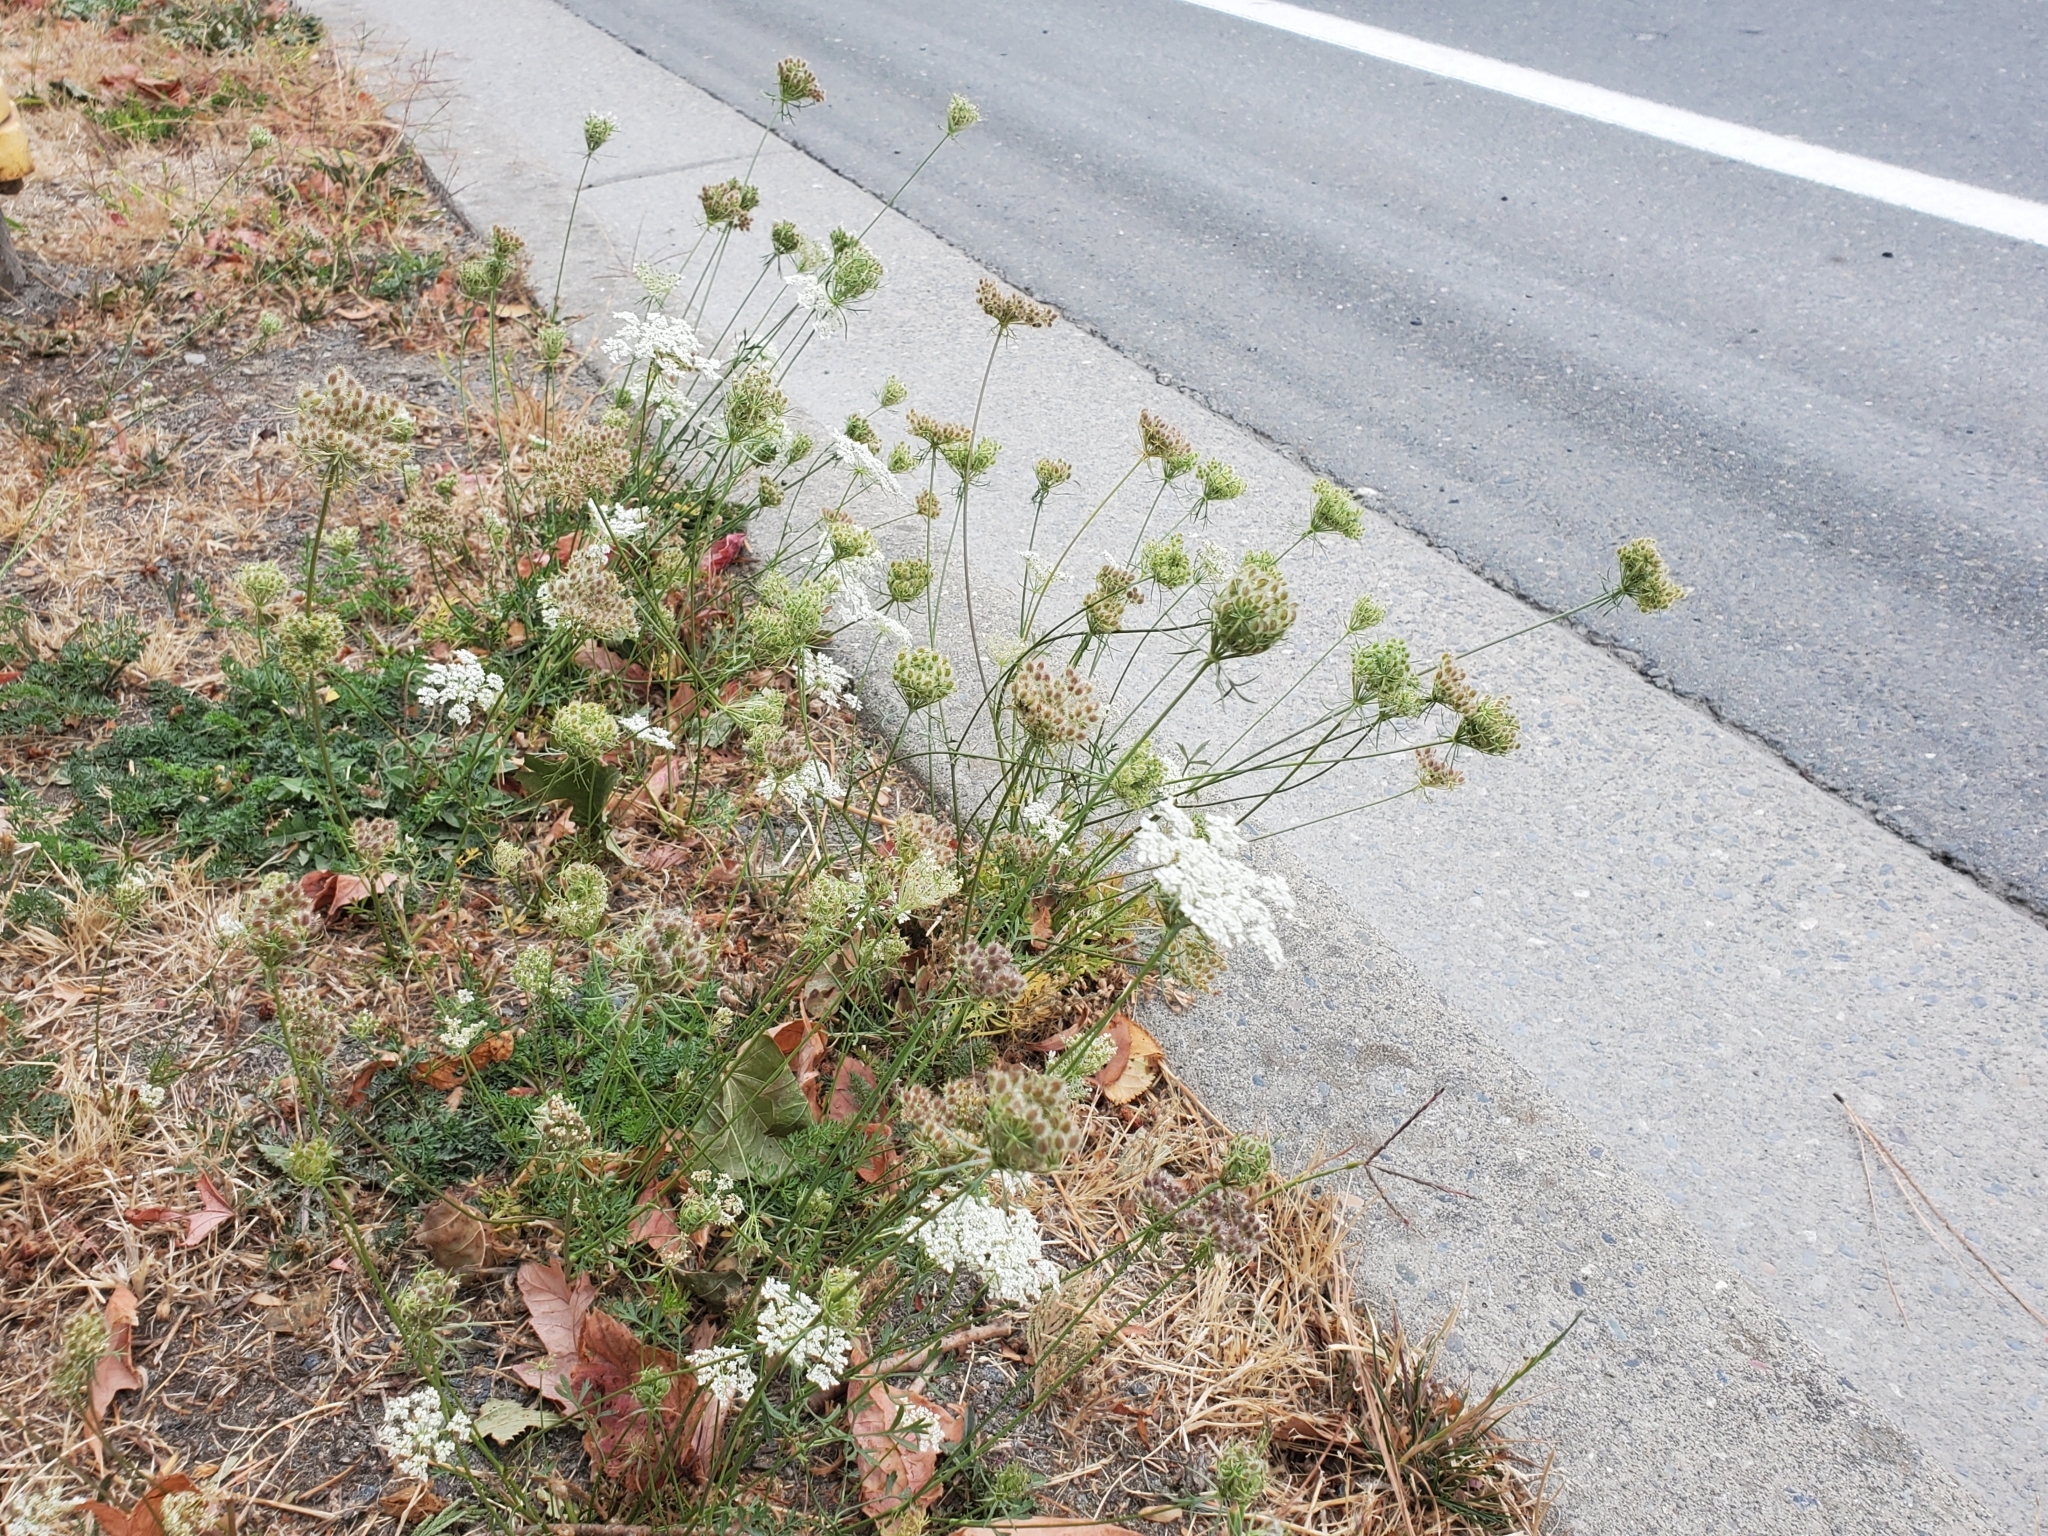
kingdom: Plantae
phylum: Tracheophyta
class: Magnoliopsida
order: Apiales
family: Apiaceae
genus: Daucus
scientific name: Daucus carota
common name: Wild carrot
